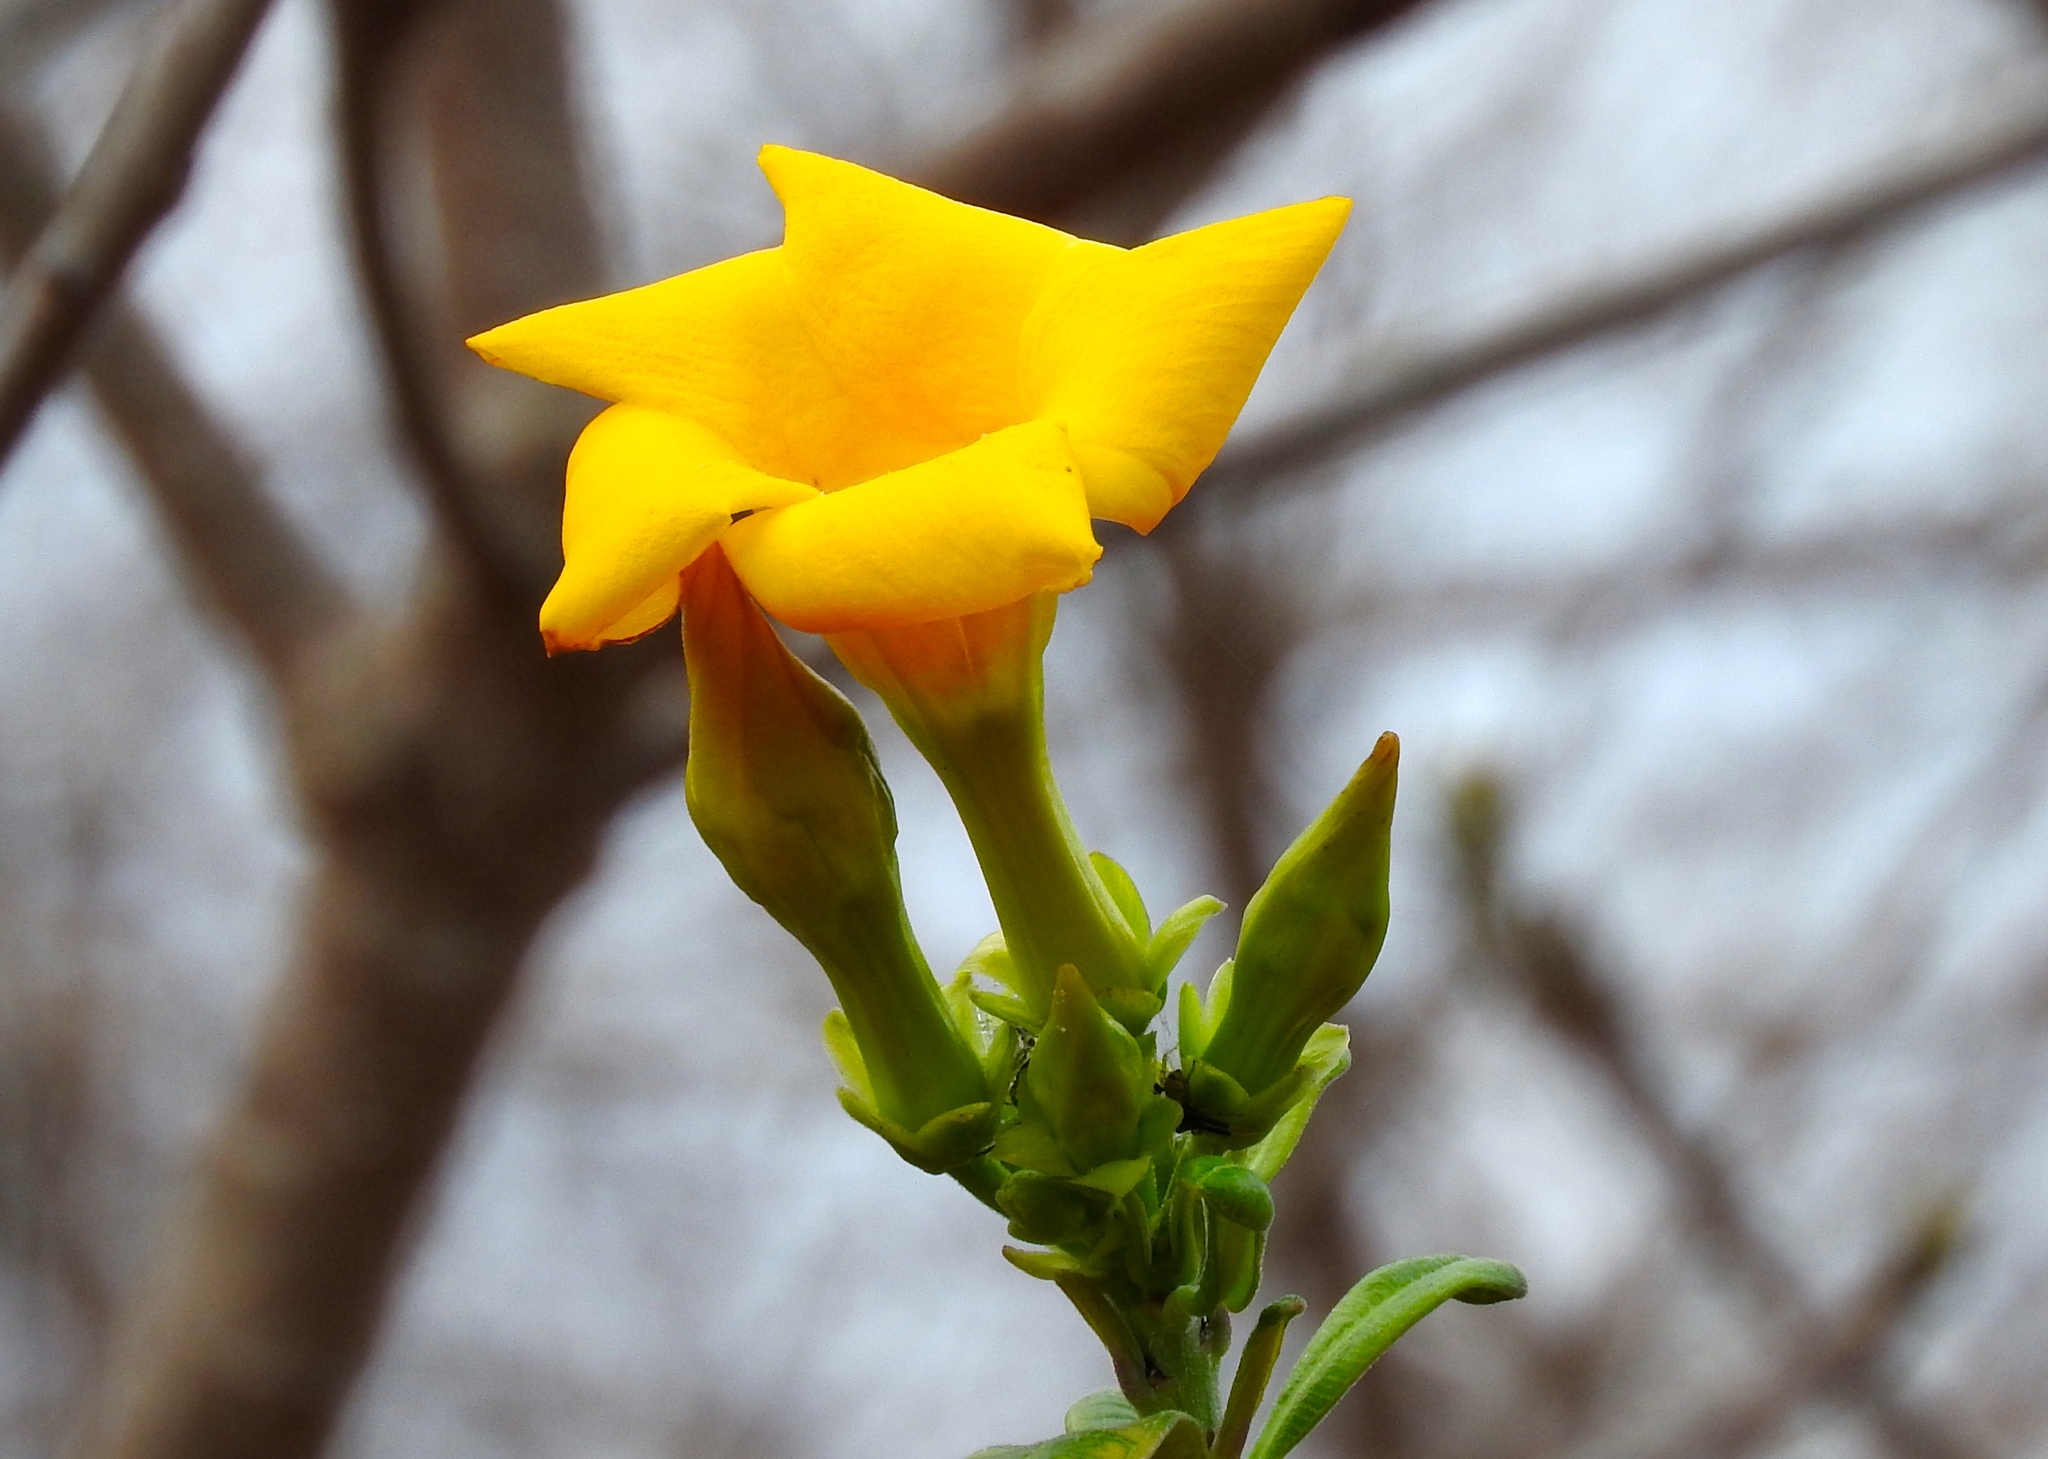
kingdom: Plantae
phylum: Tracheophyta
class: Magnoliopsida
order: Gentianales
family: Apocynaceae
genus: Cascabela
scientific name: Cascabela ovata
